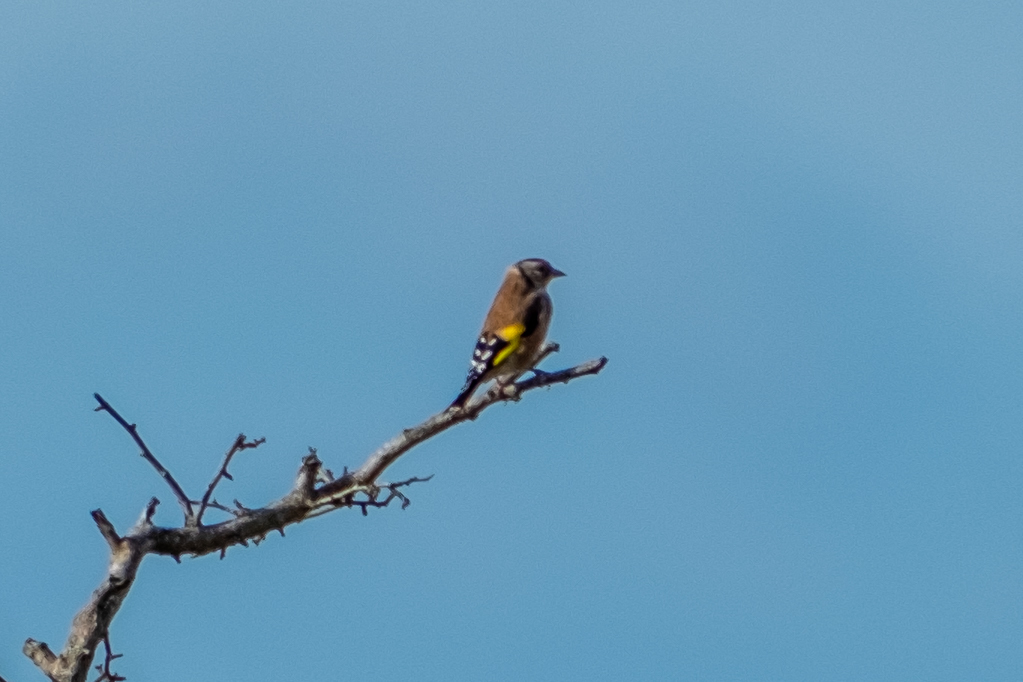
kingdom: Animalia
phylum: Chordata
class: Aves
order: Passeriformes
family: Fringillidae
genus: Carduelis
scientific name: Carduelis carduelis
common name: European goldfinch
